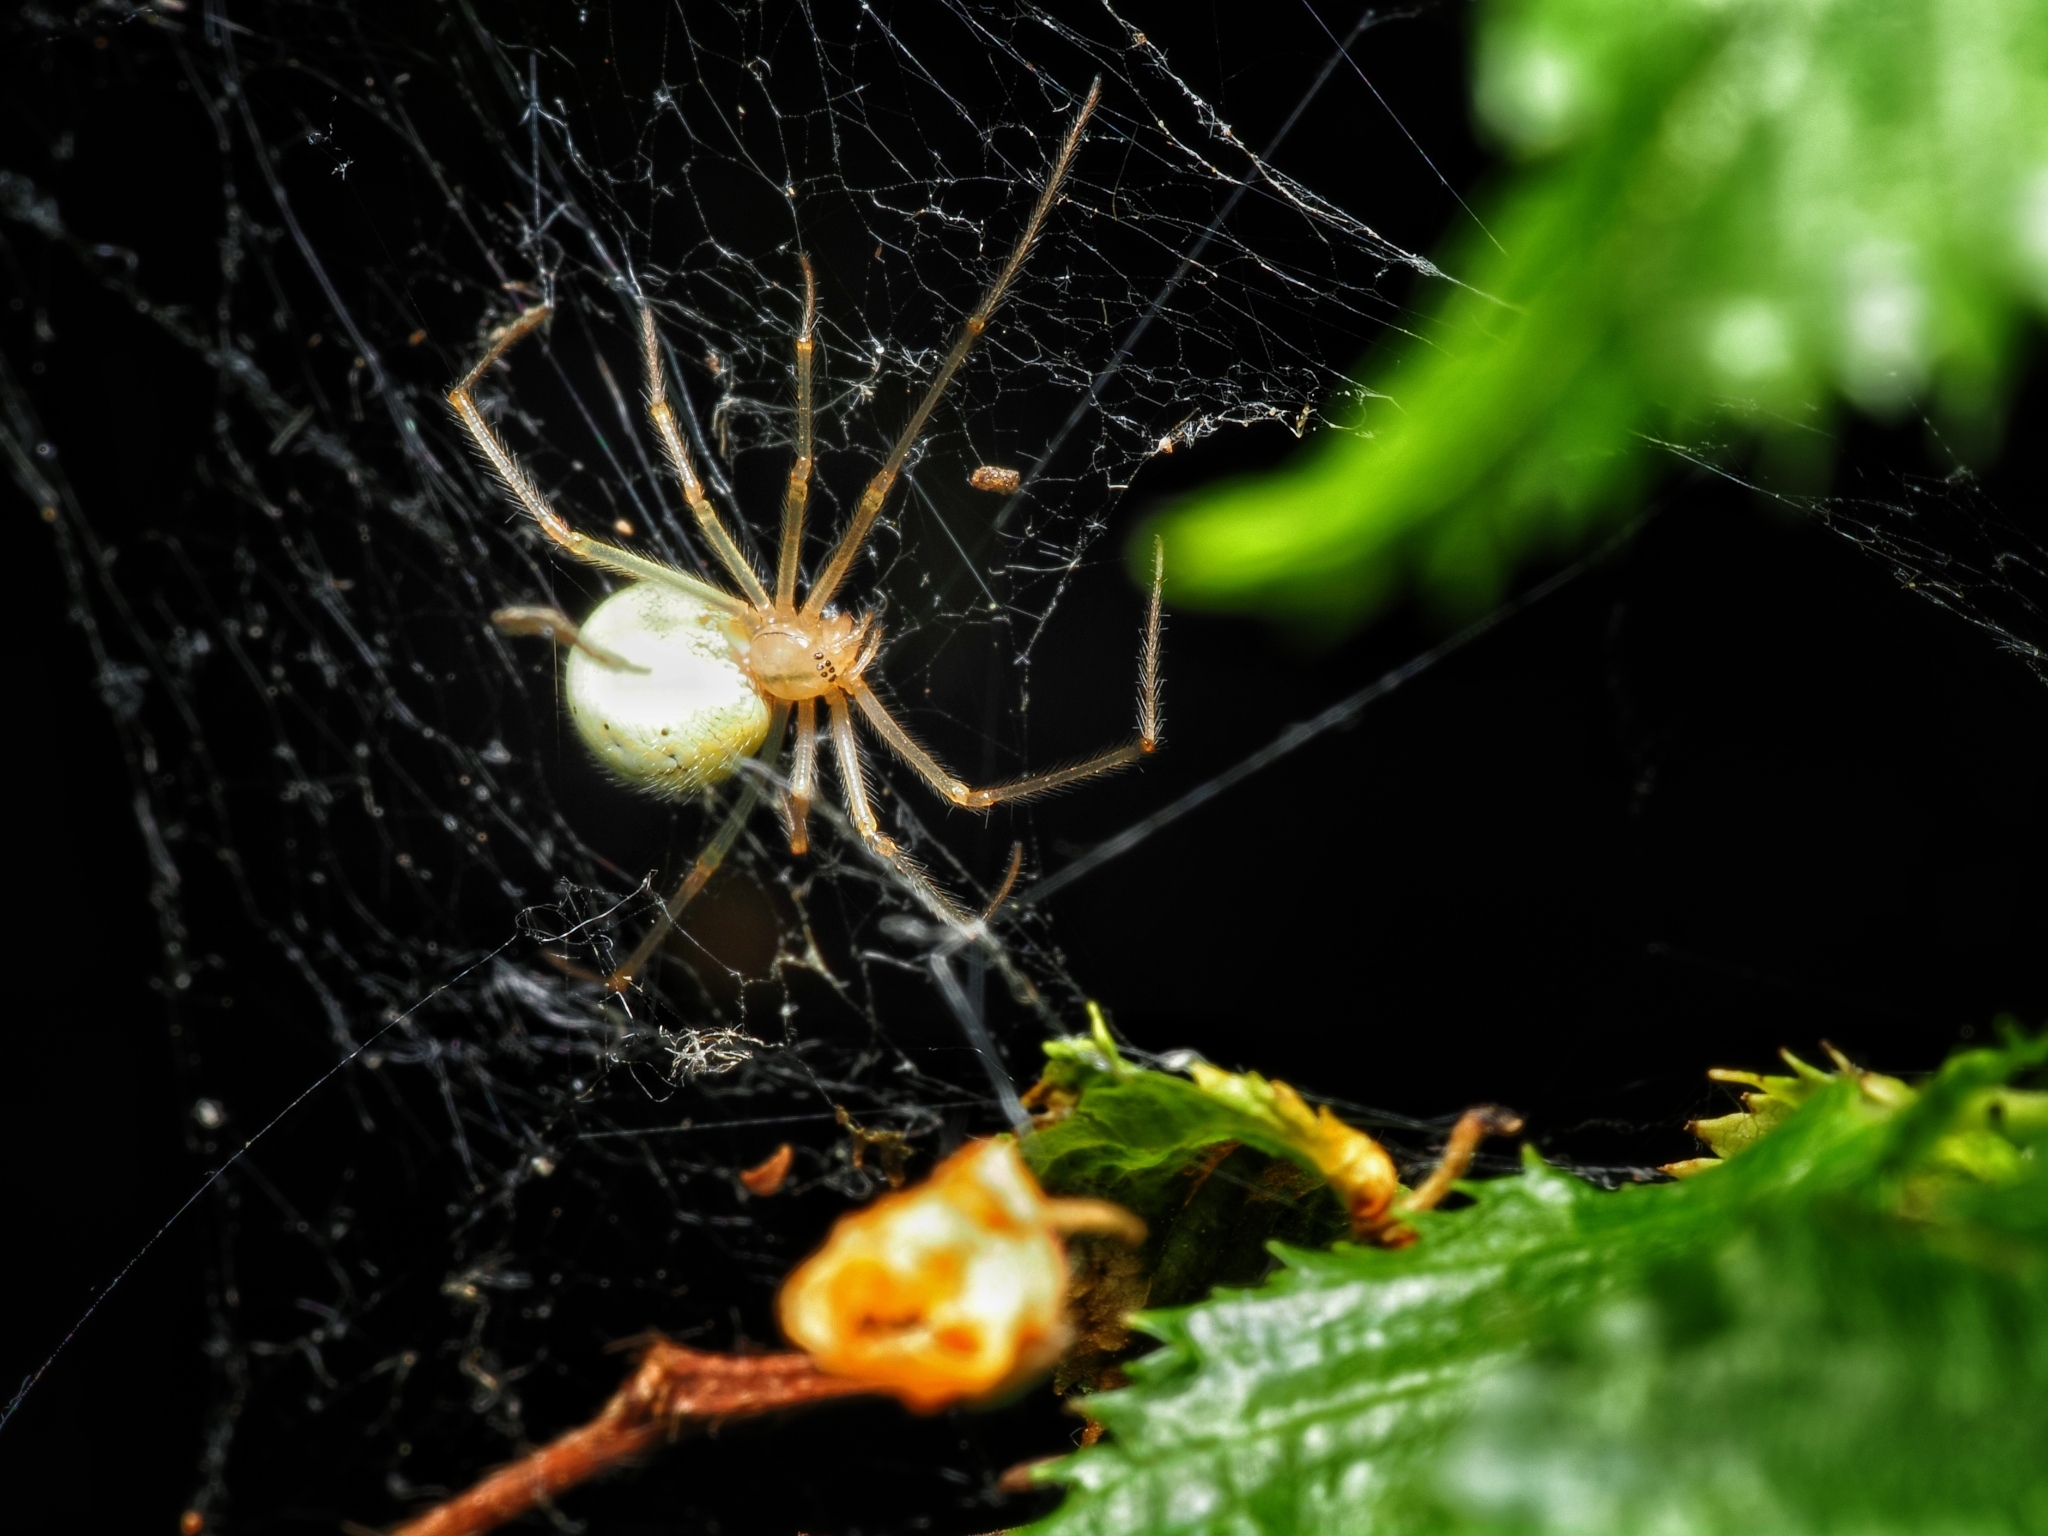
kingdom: Animalia
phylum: Arthropoda
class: Arachnida
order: Araneae
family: Theridiidae
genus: Enoplognatha
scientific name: Enoplognatha ovata
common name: Common candy-striped spider
